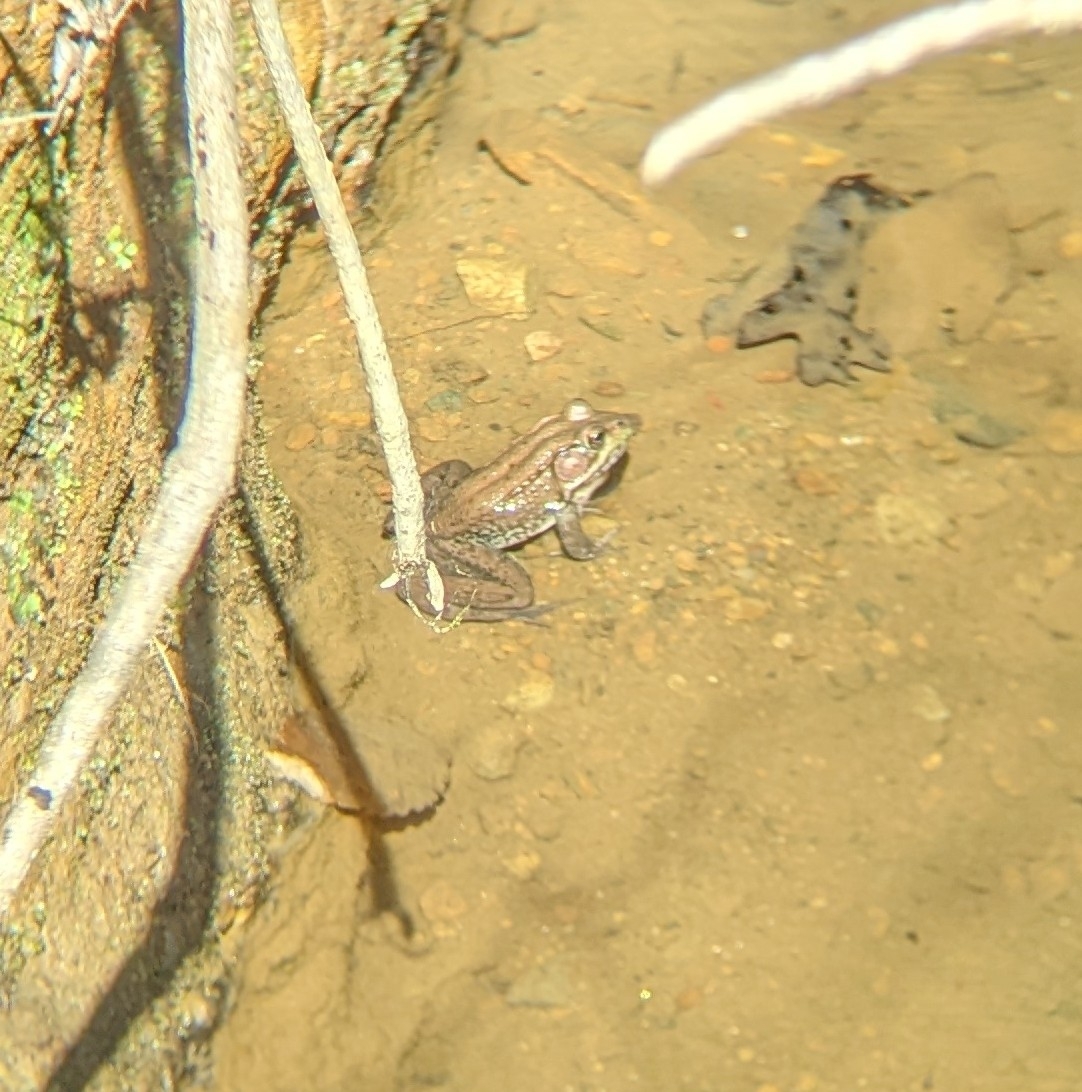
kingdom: Animalia
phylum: Chordata
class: Amphibia
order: Anura
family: Ranidae
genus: Lithobates
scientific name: Lithobates clamitans
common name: Green frog
